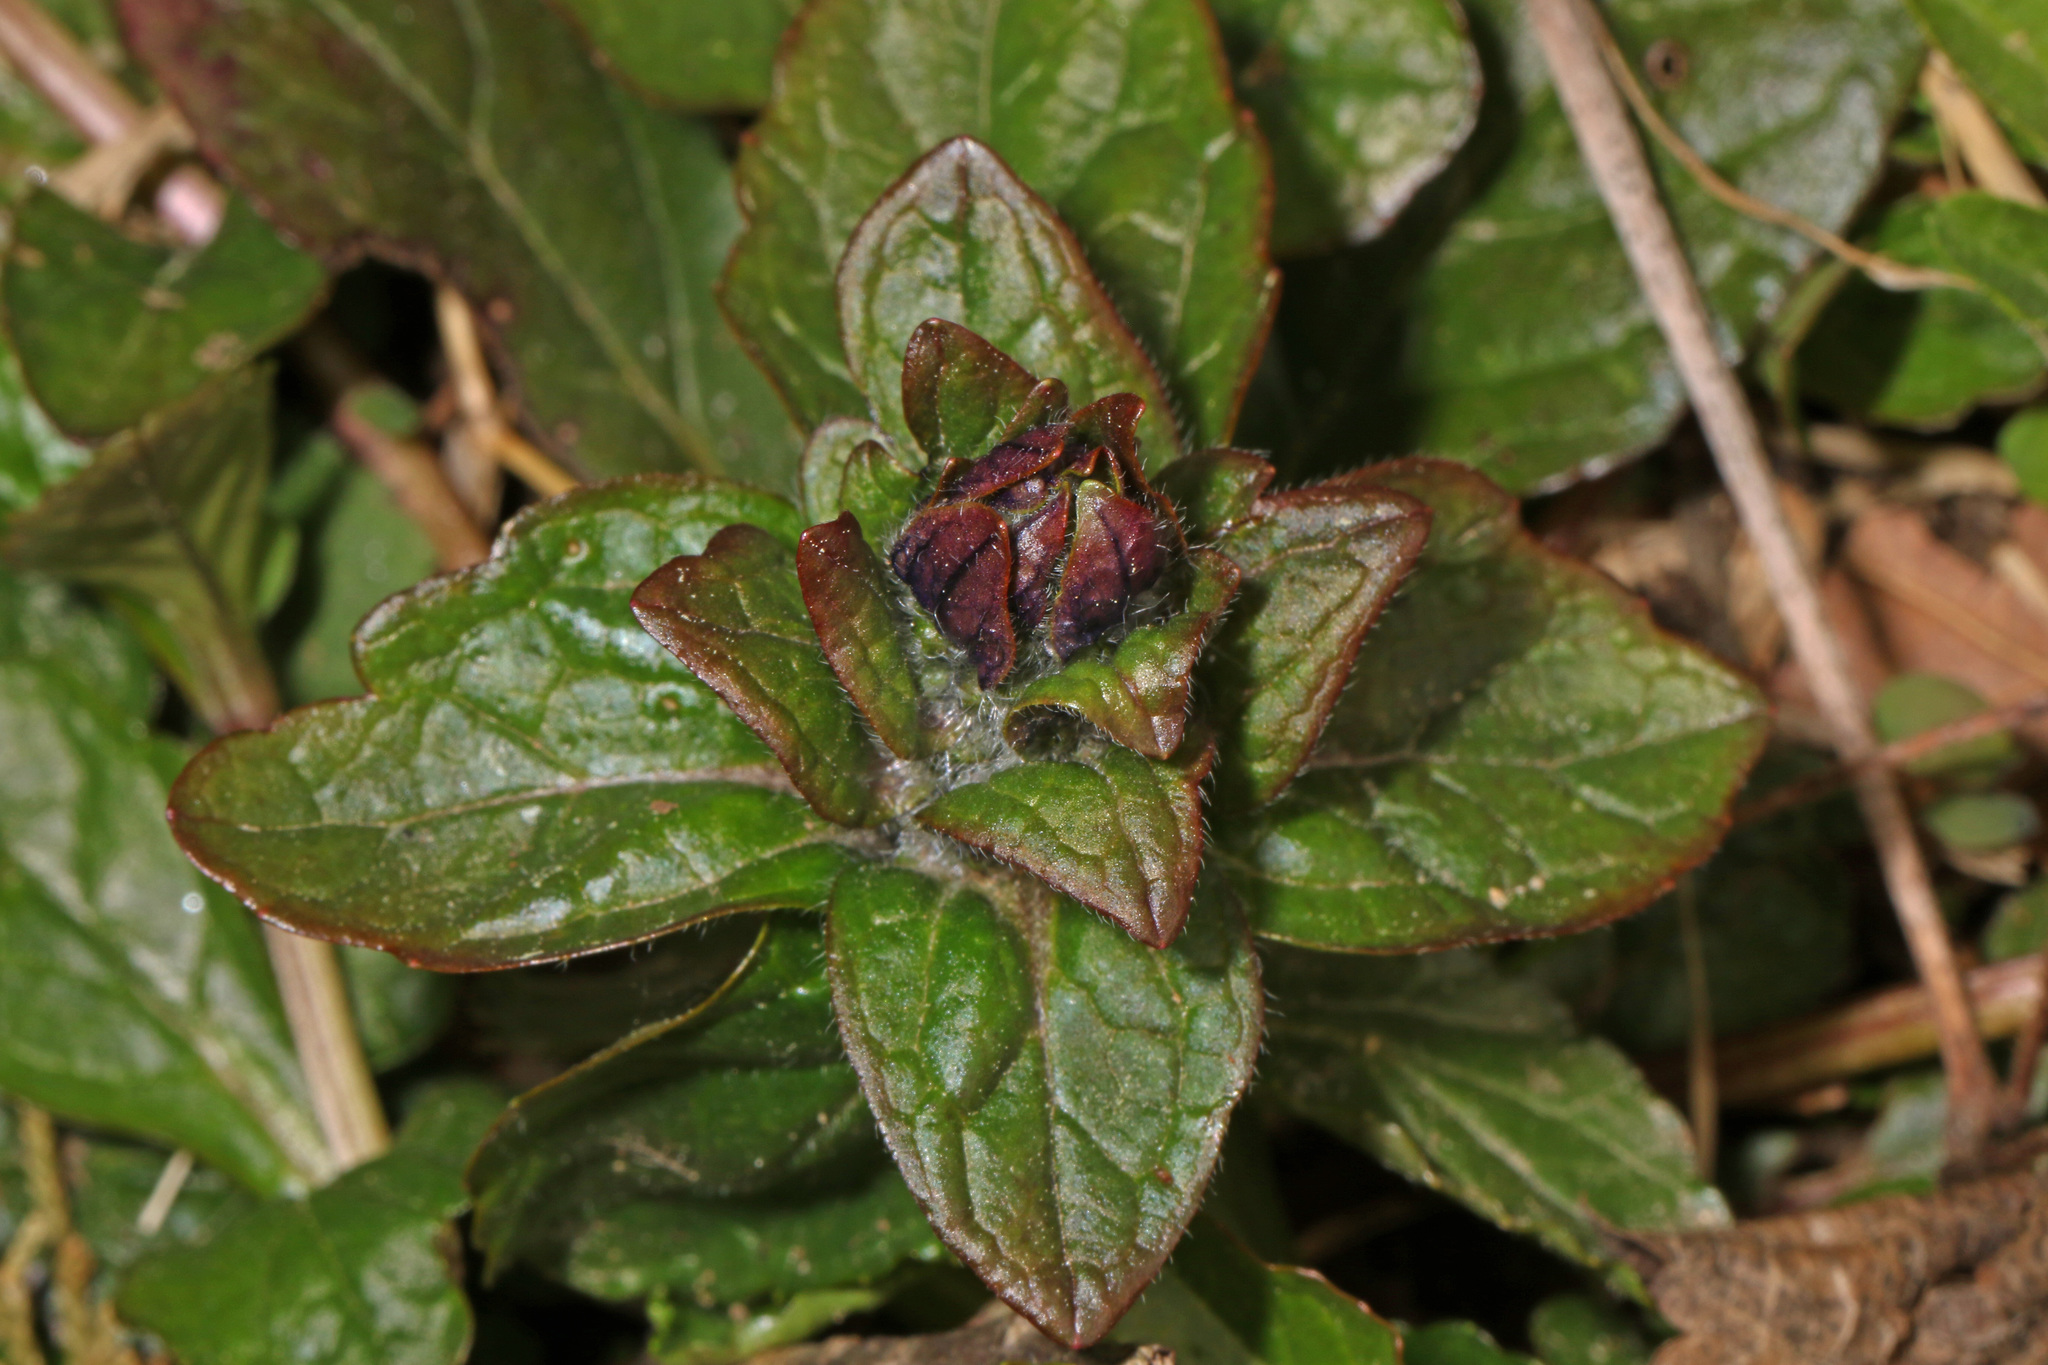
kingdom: Plantae
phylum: Tracheophyta
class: Magnoliopsida
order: Lamiales
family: Lamiaceae
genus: Ajuga
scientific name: Ajuga reptans
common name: Bugle
